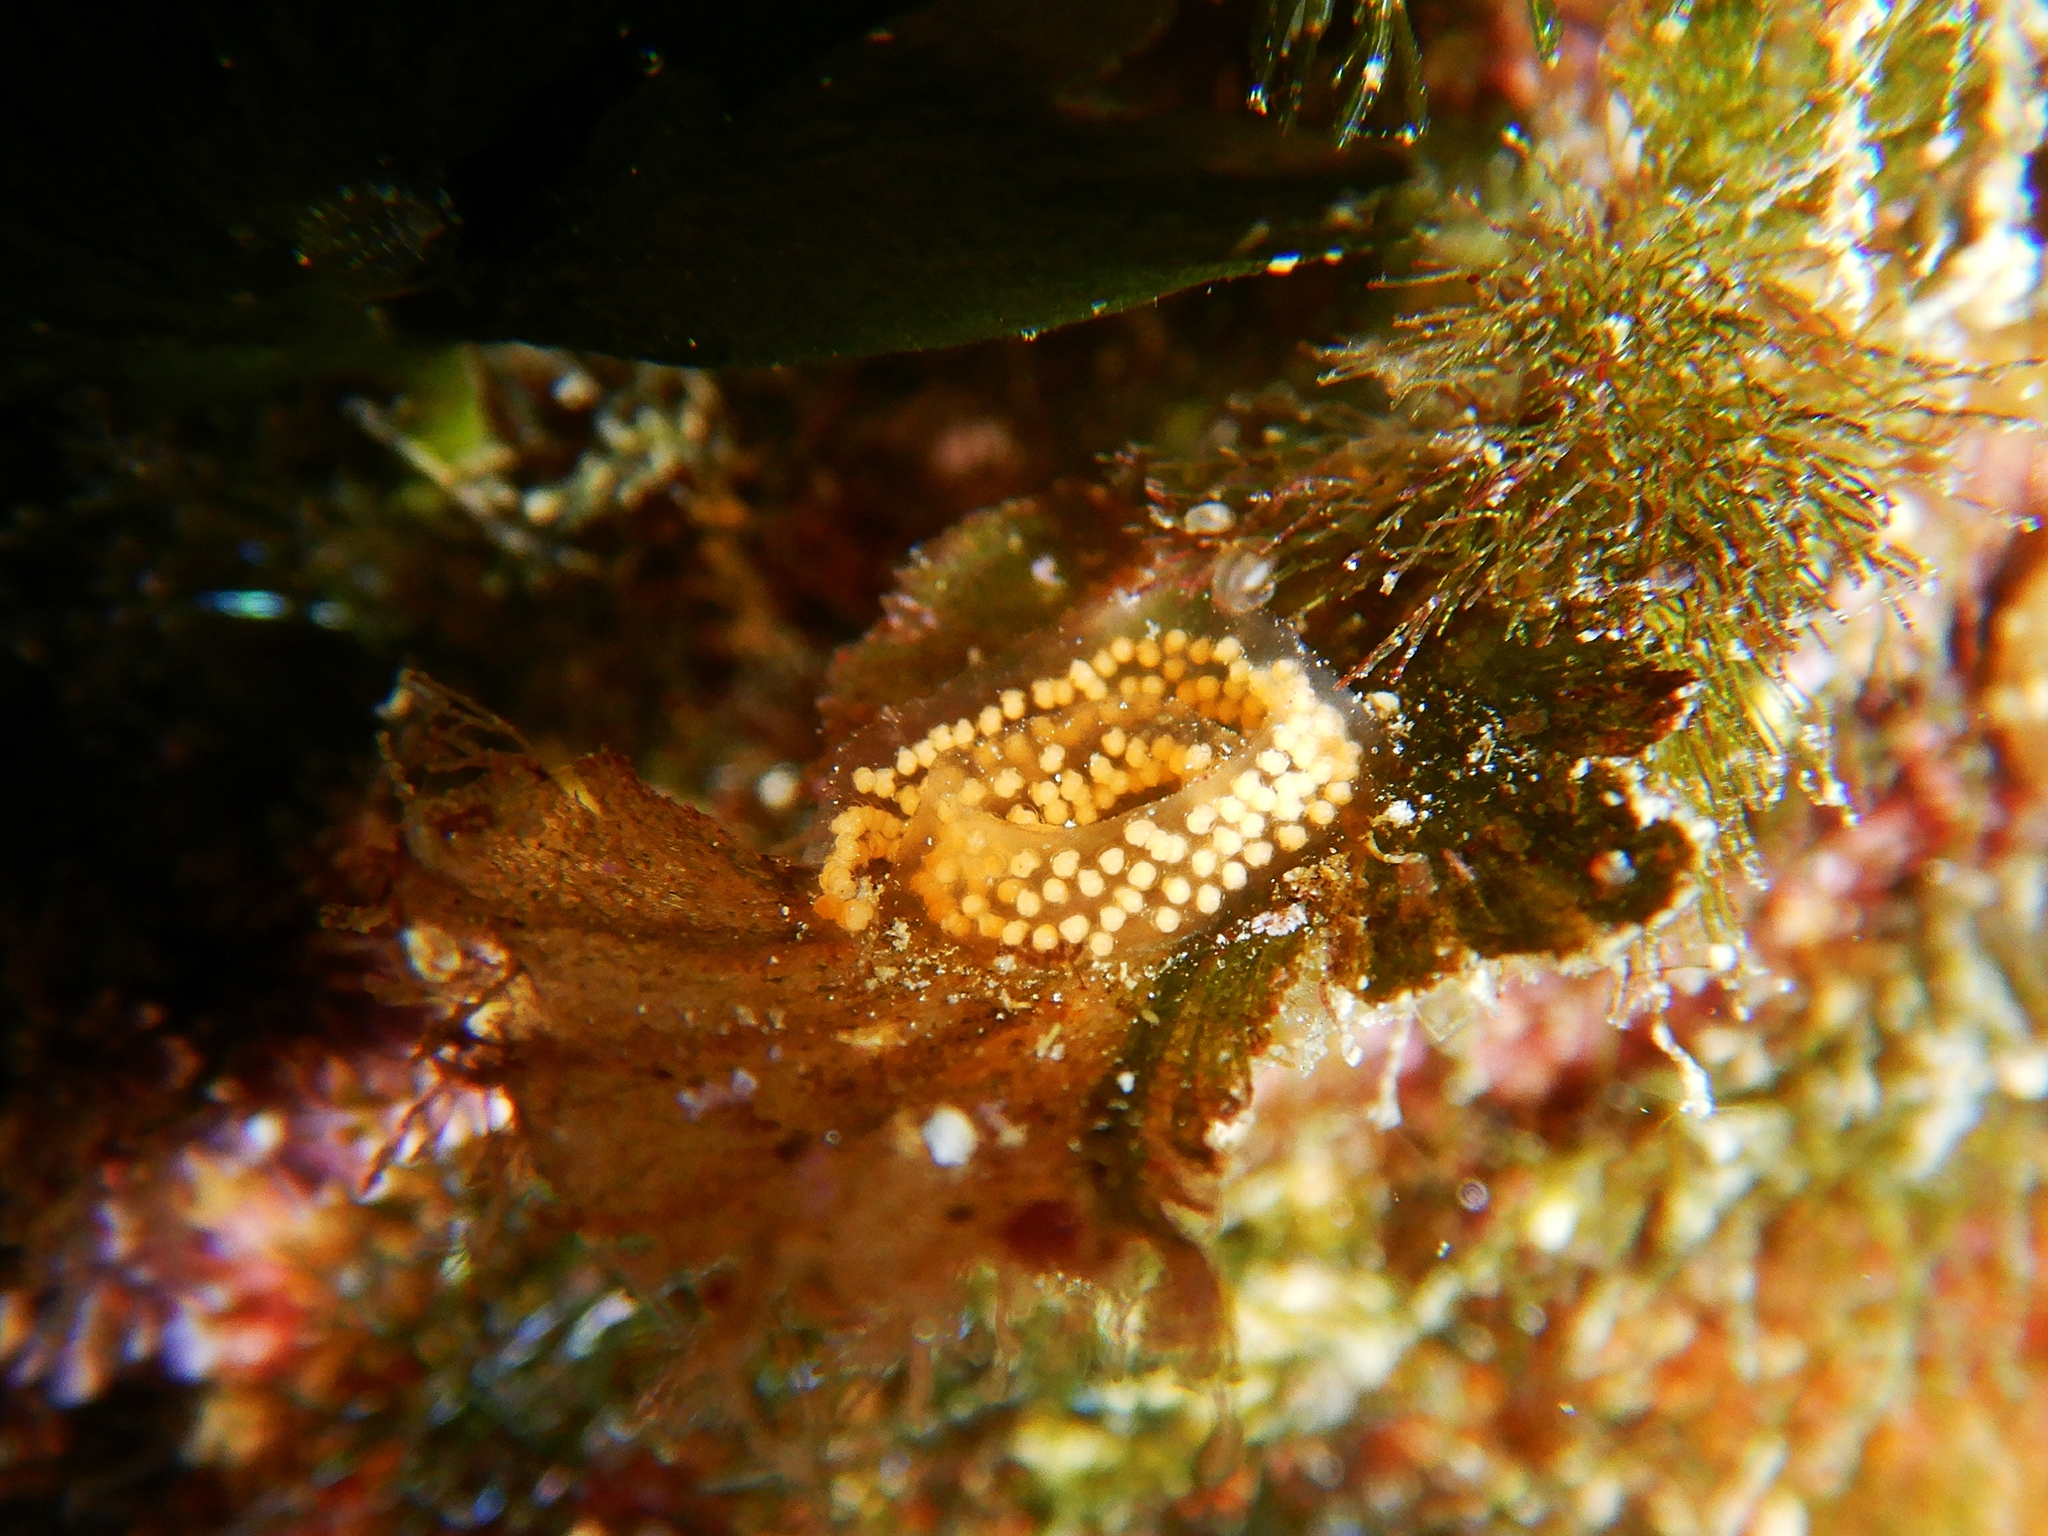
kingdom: Animalia
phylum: Mollusca
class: Gastropoda
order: Nudibranchia
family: Chromodorididae
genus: Felimare
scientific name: Felimare villafranca
